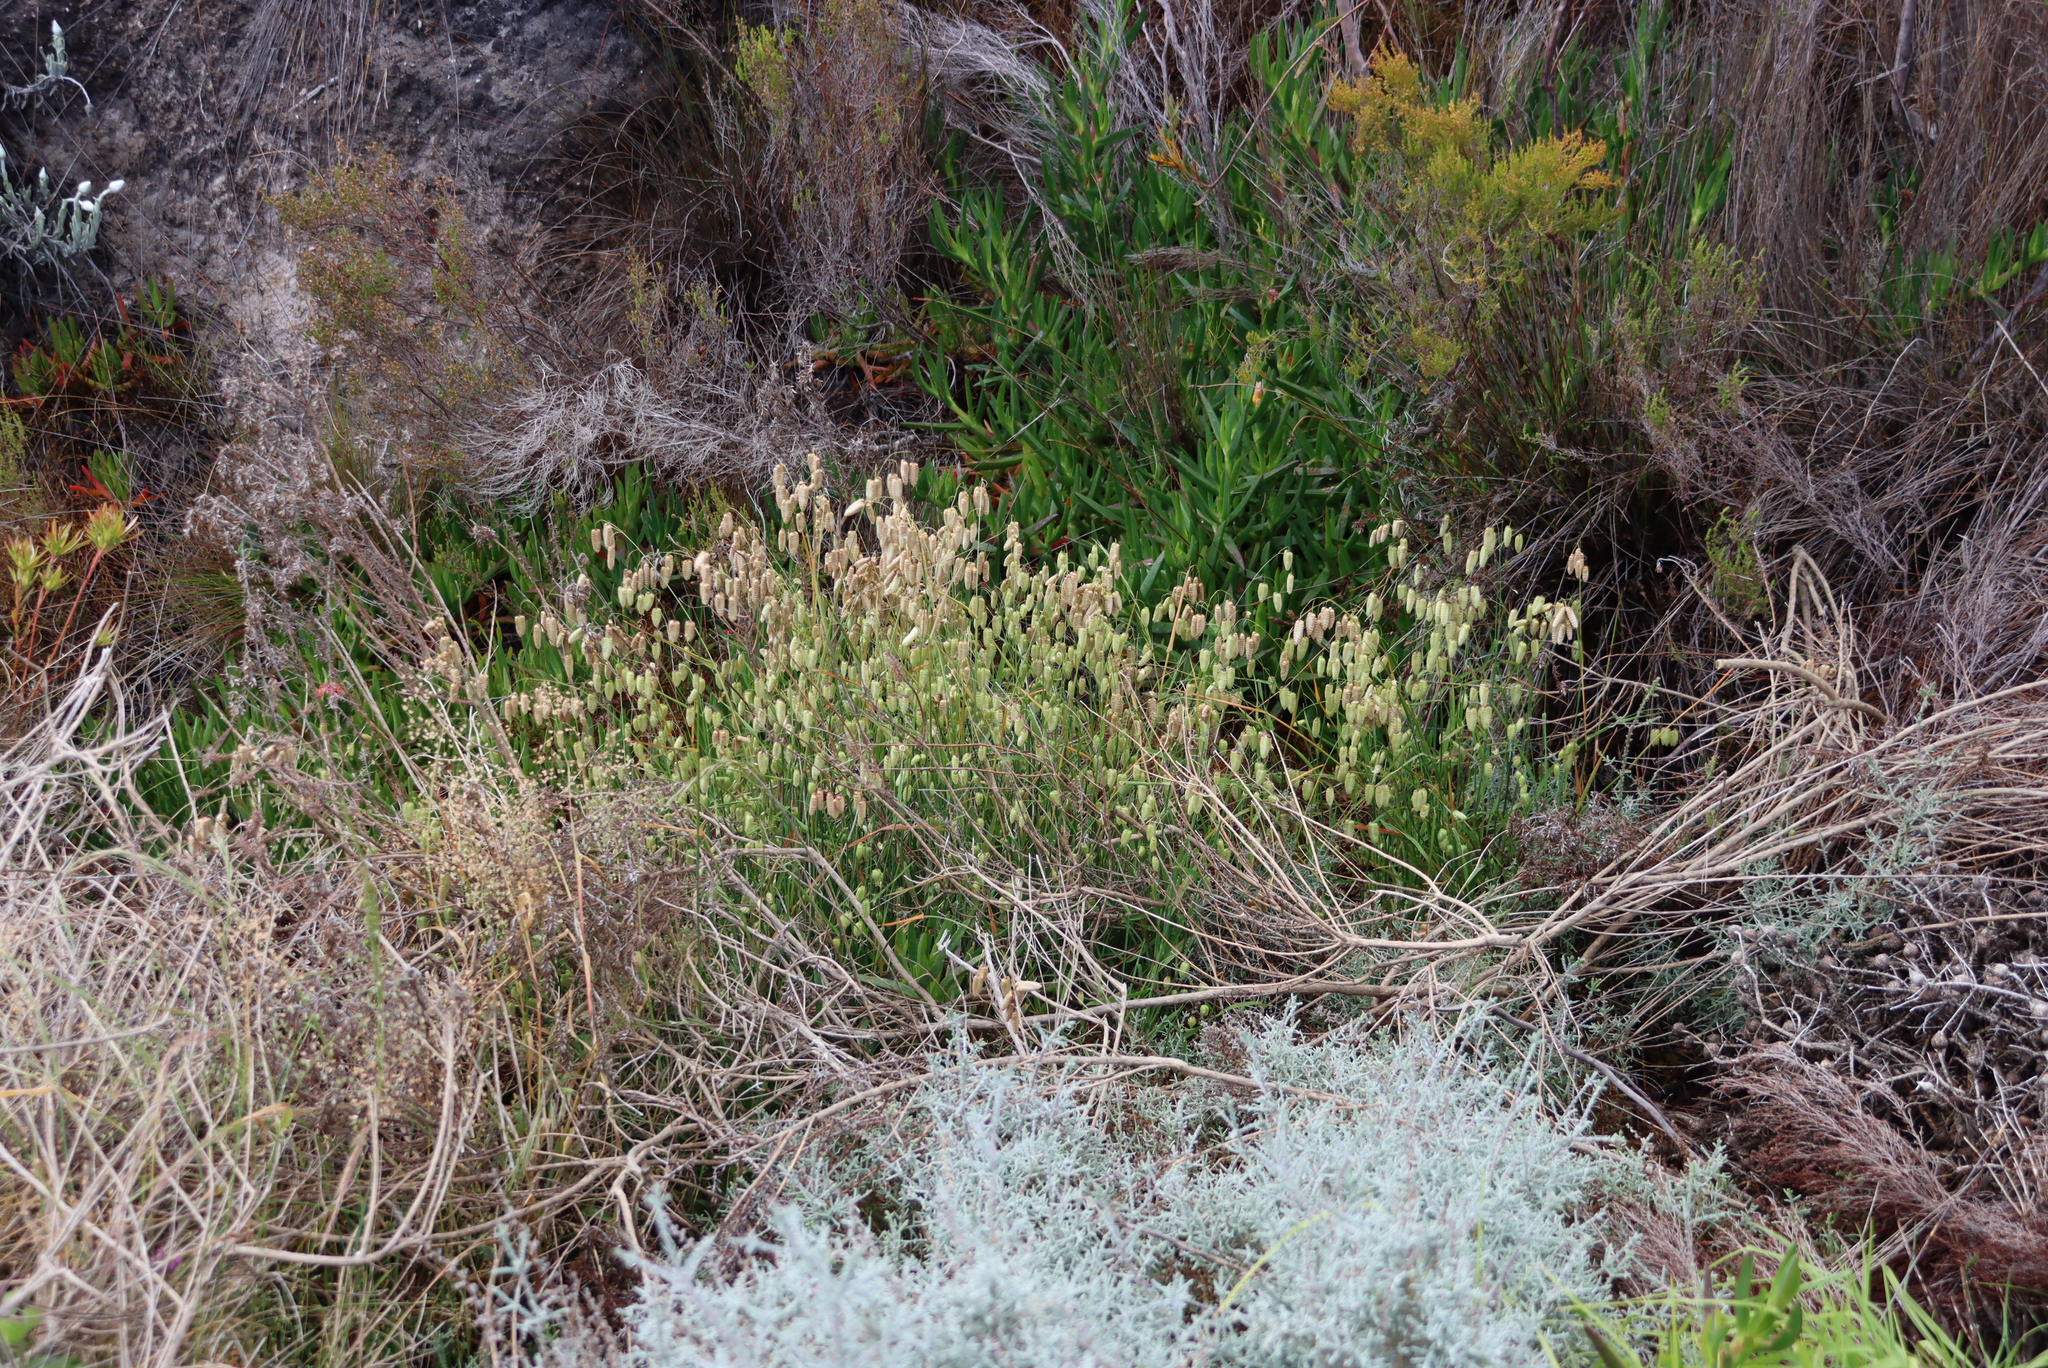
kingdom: Plantae
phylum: Tracheophyta
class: Liliopsida
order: Poales
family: Poaceae
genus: Briza
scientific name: Briza maxima
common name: Big quakinggrass
